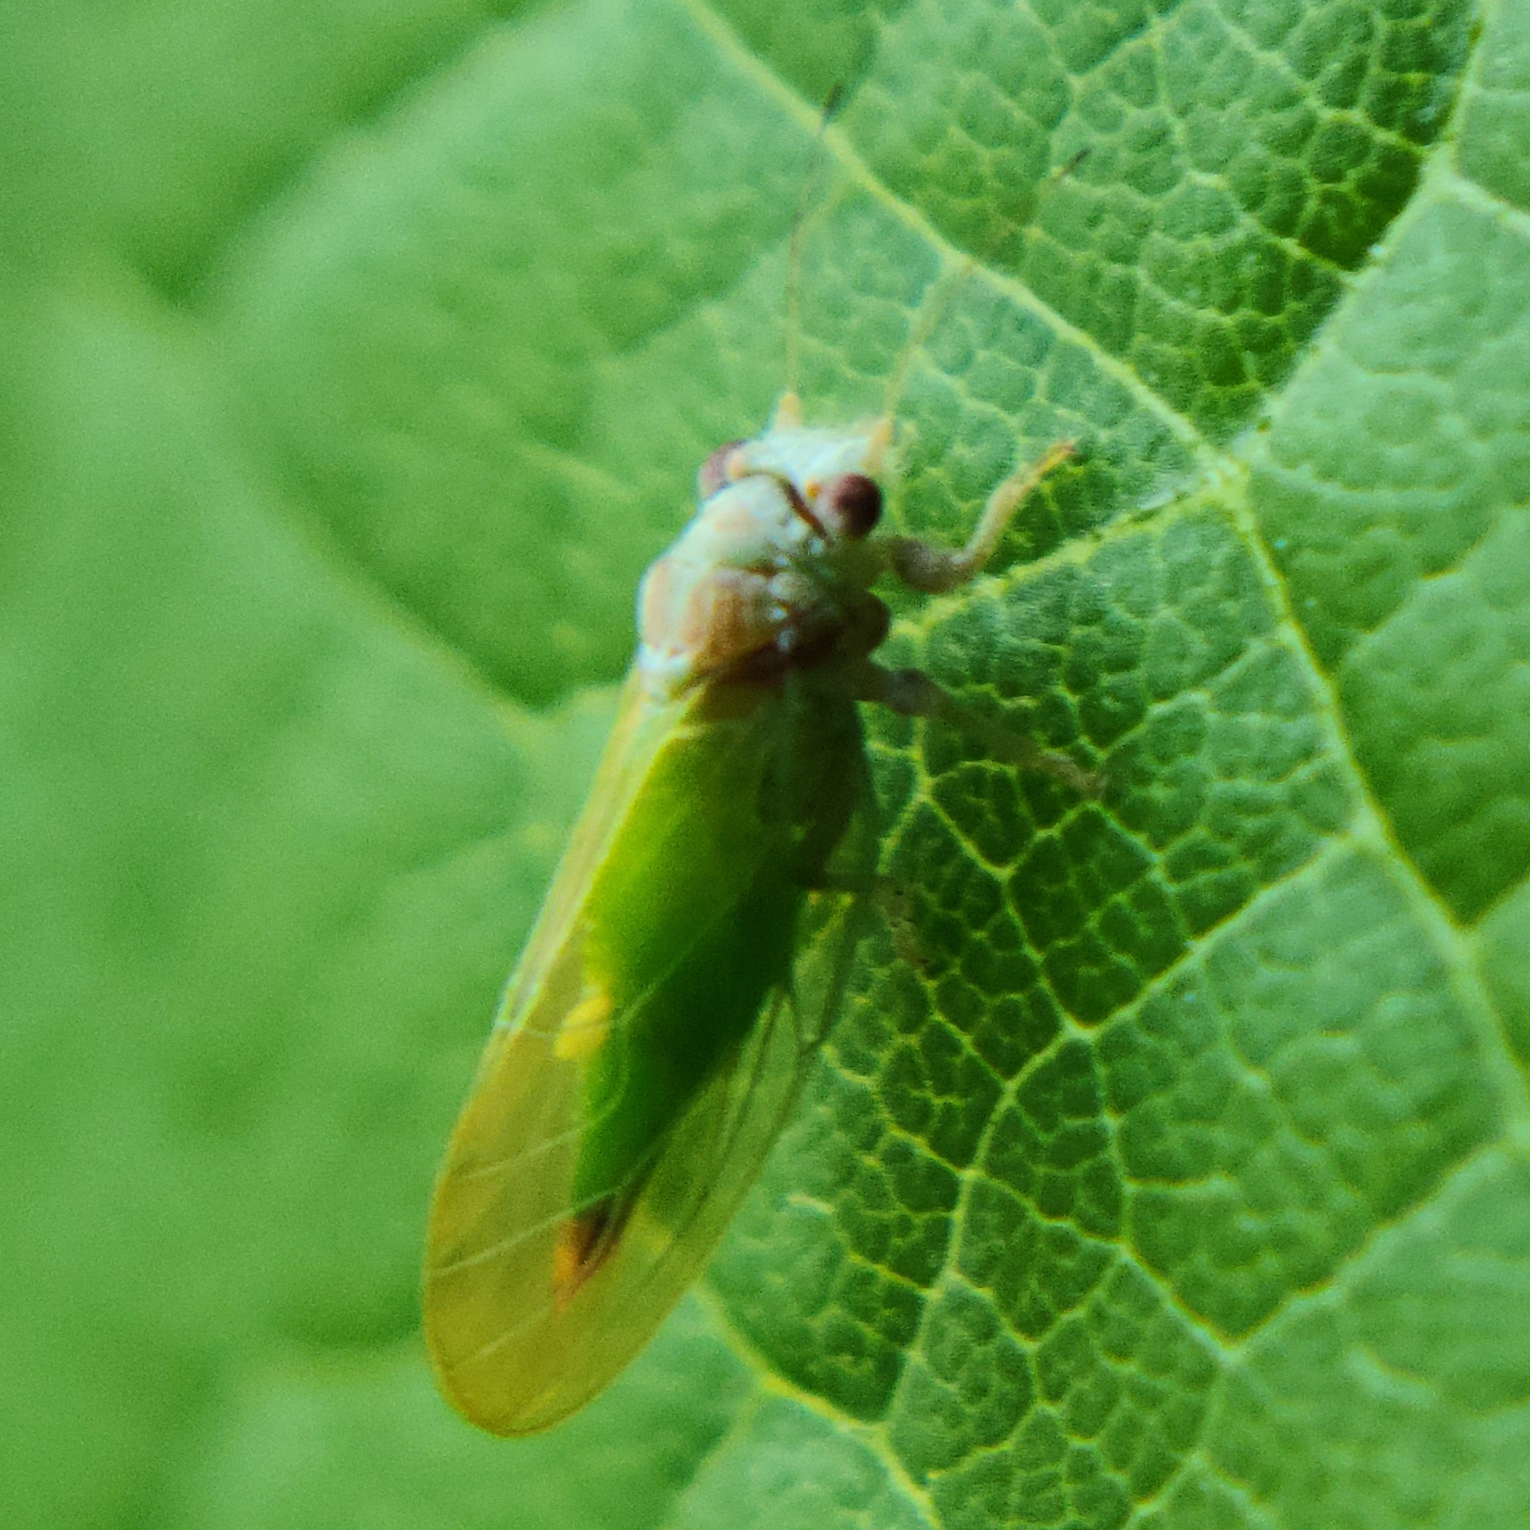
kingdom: Animalia
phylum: Arthropoda
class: Insecta
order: Hemiptera
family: Psyllidae
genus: Psylla
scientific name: Psylla buxi
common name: Boxwood psyllid
